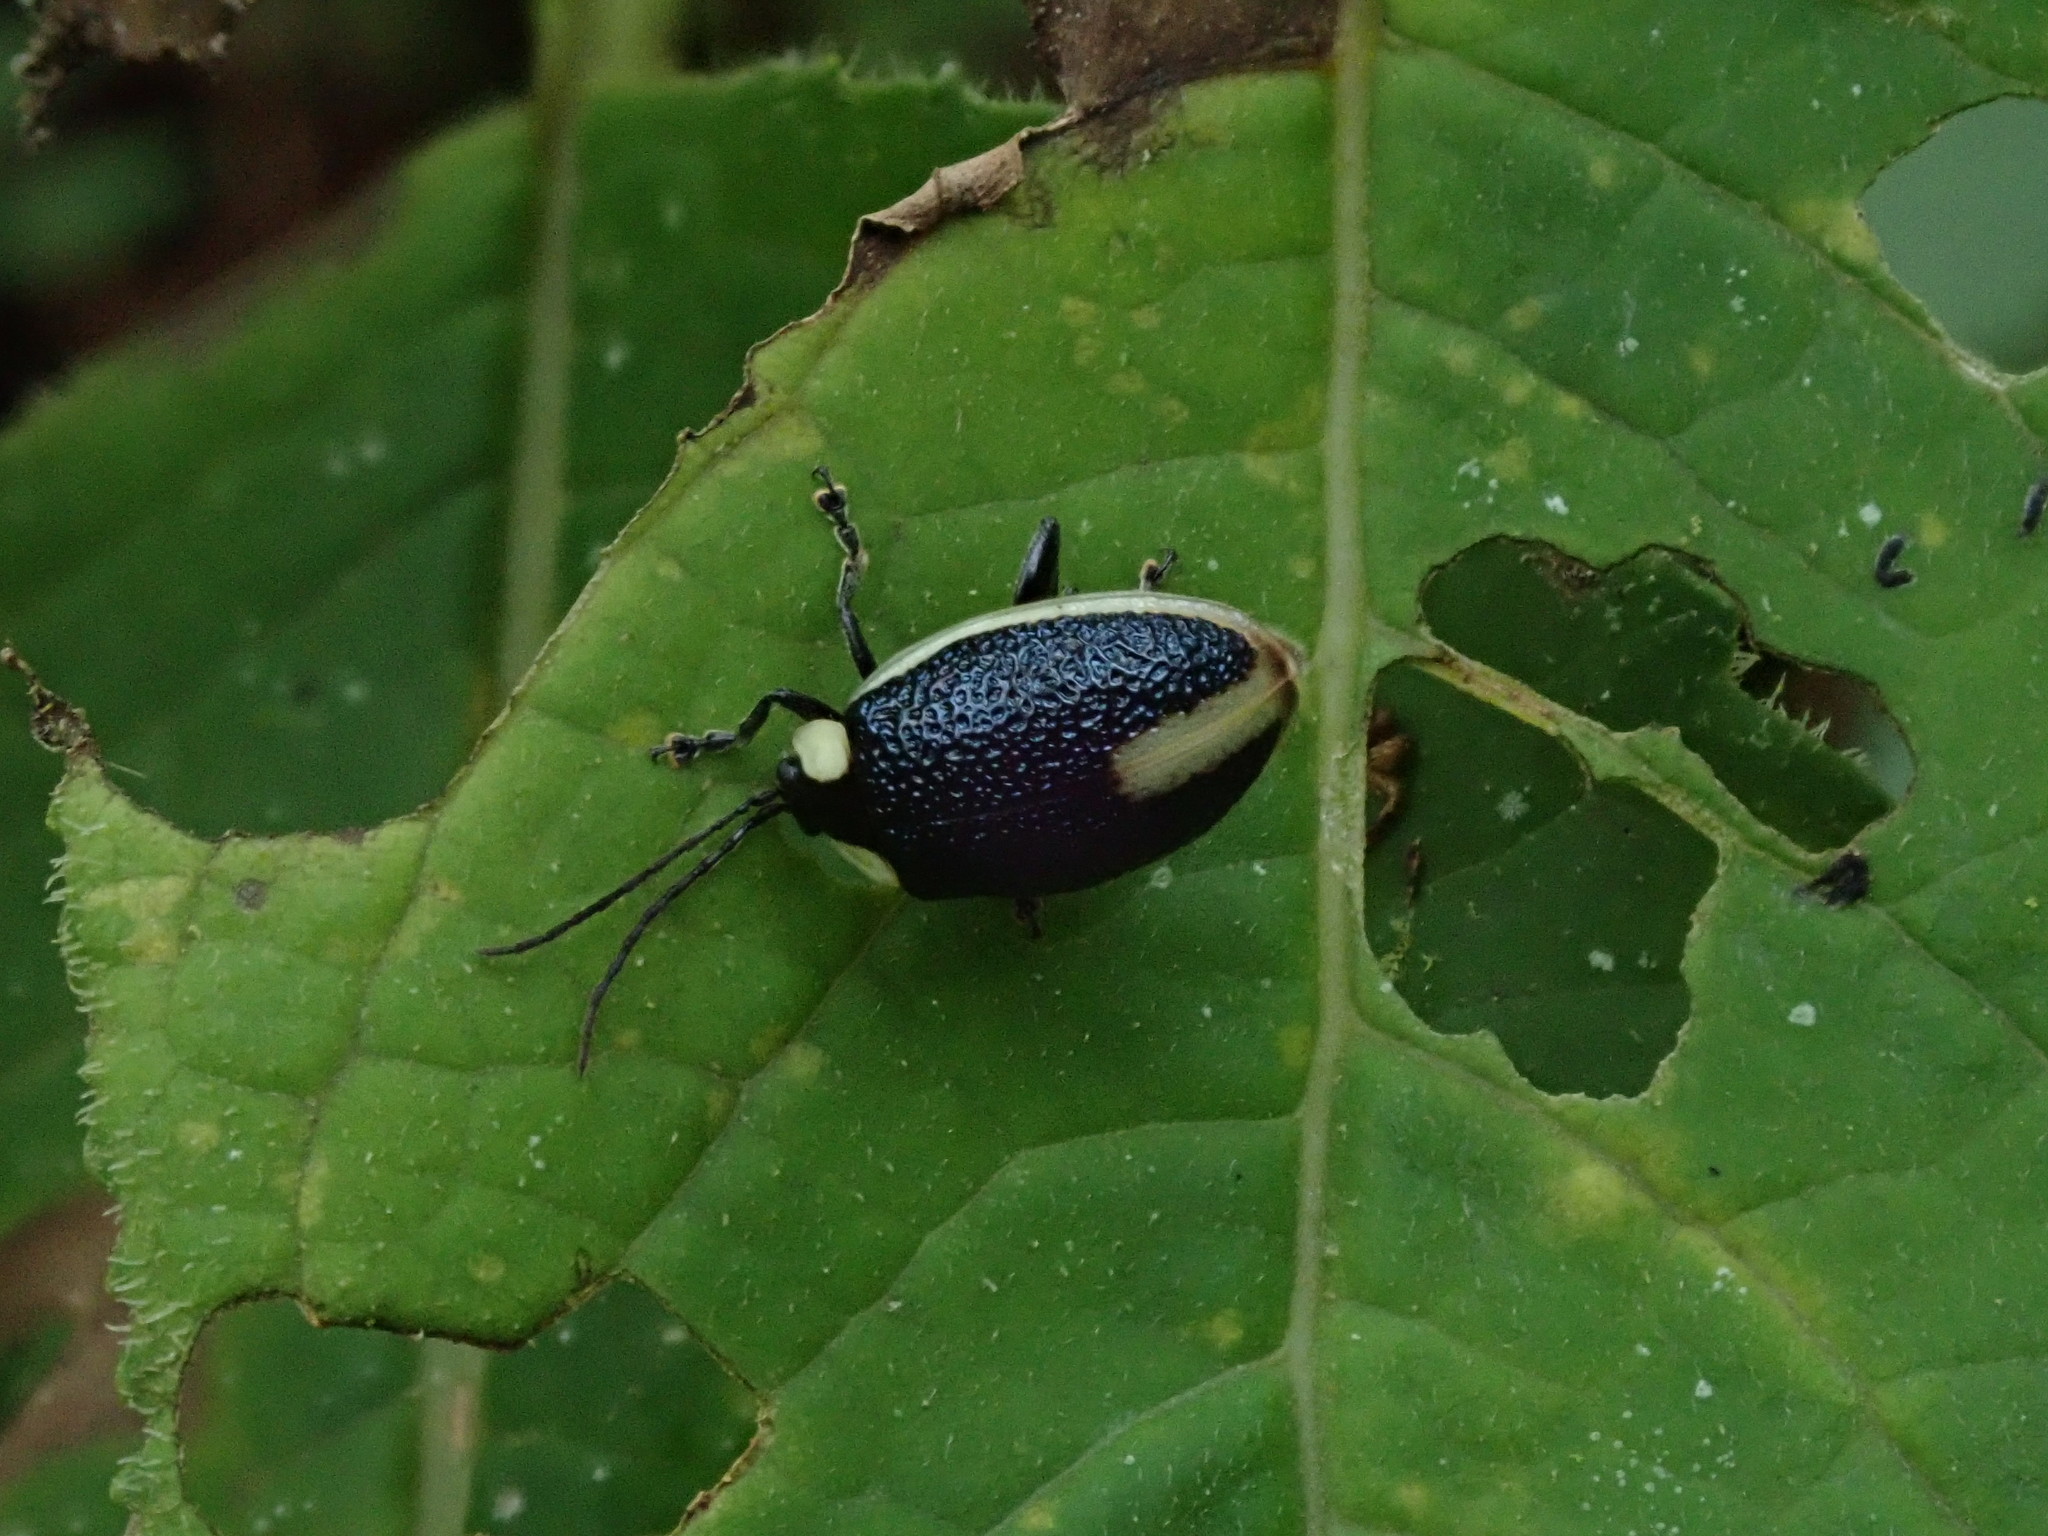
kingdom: Animalia
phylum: Arthropoda
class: Insecta
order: Coleoptera
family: Chrysomelidae
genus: Aspicela
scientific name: Aspicela
